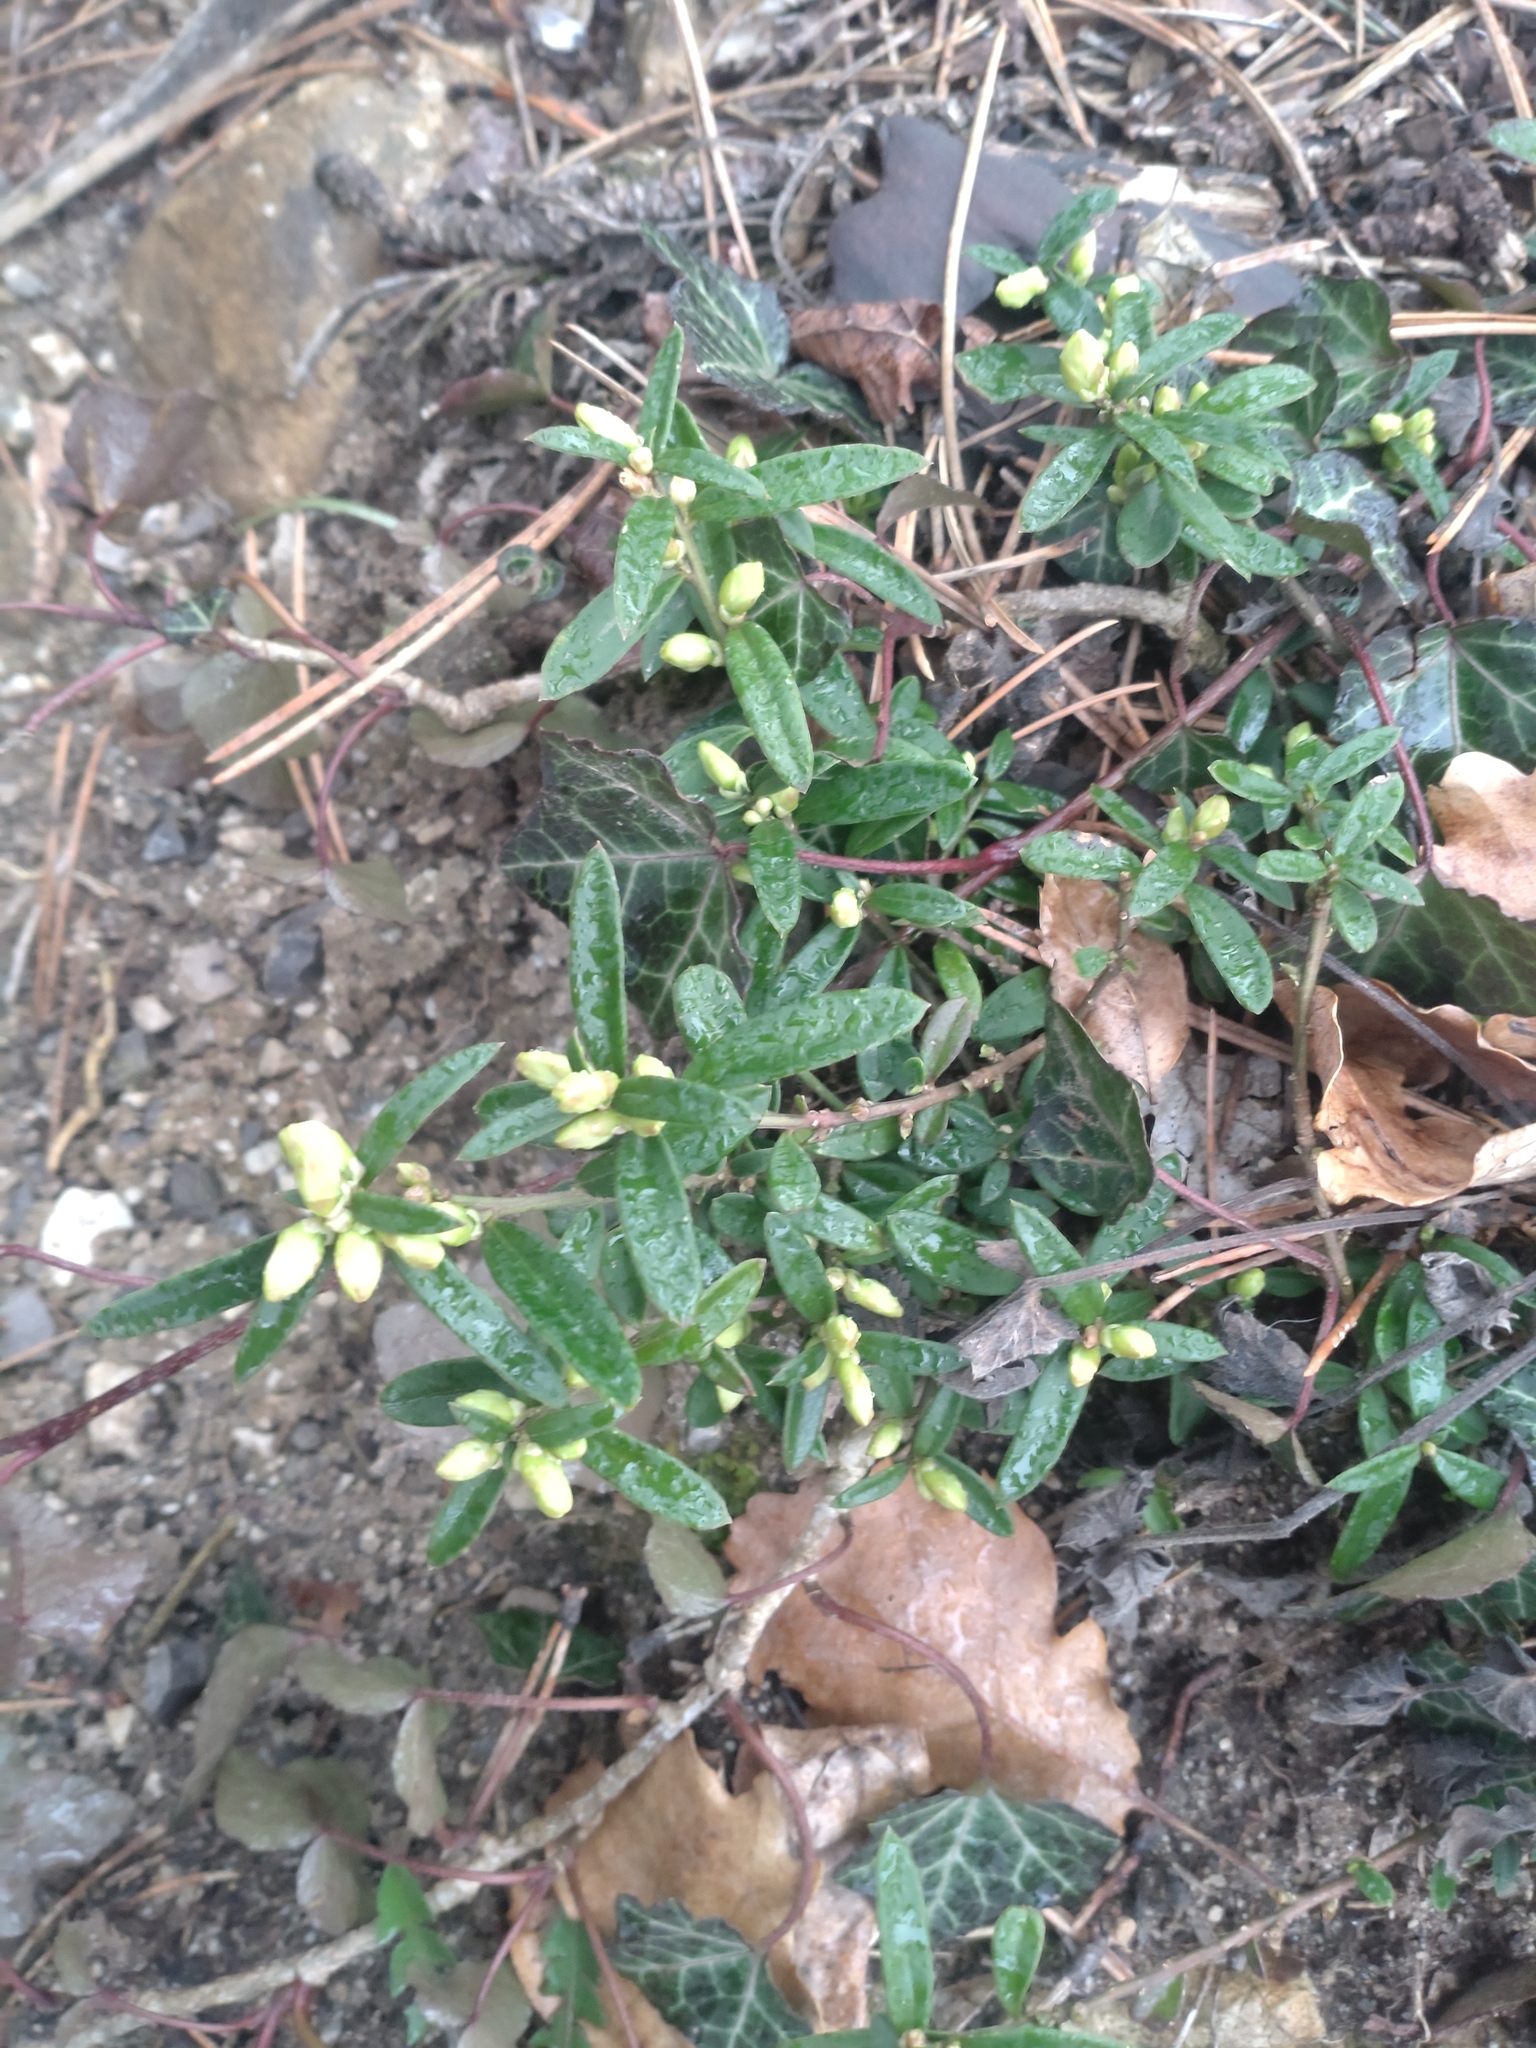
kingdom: Plantae
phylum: Tracheophyta
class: Magnoliopsida
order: Fabales
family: Polygalaceae
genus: Polygaloides
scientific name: Polygaloides chamaebuxus
